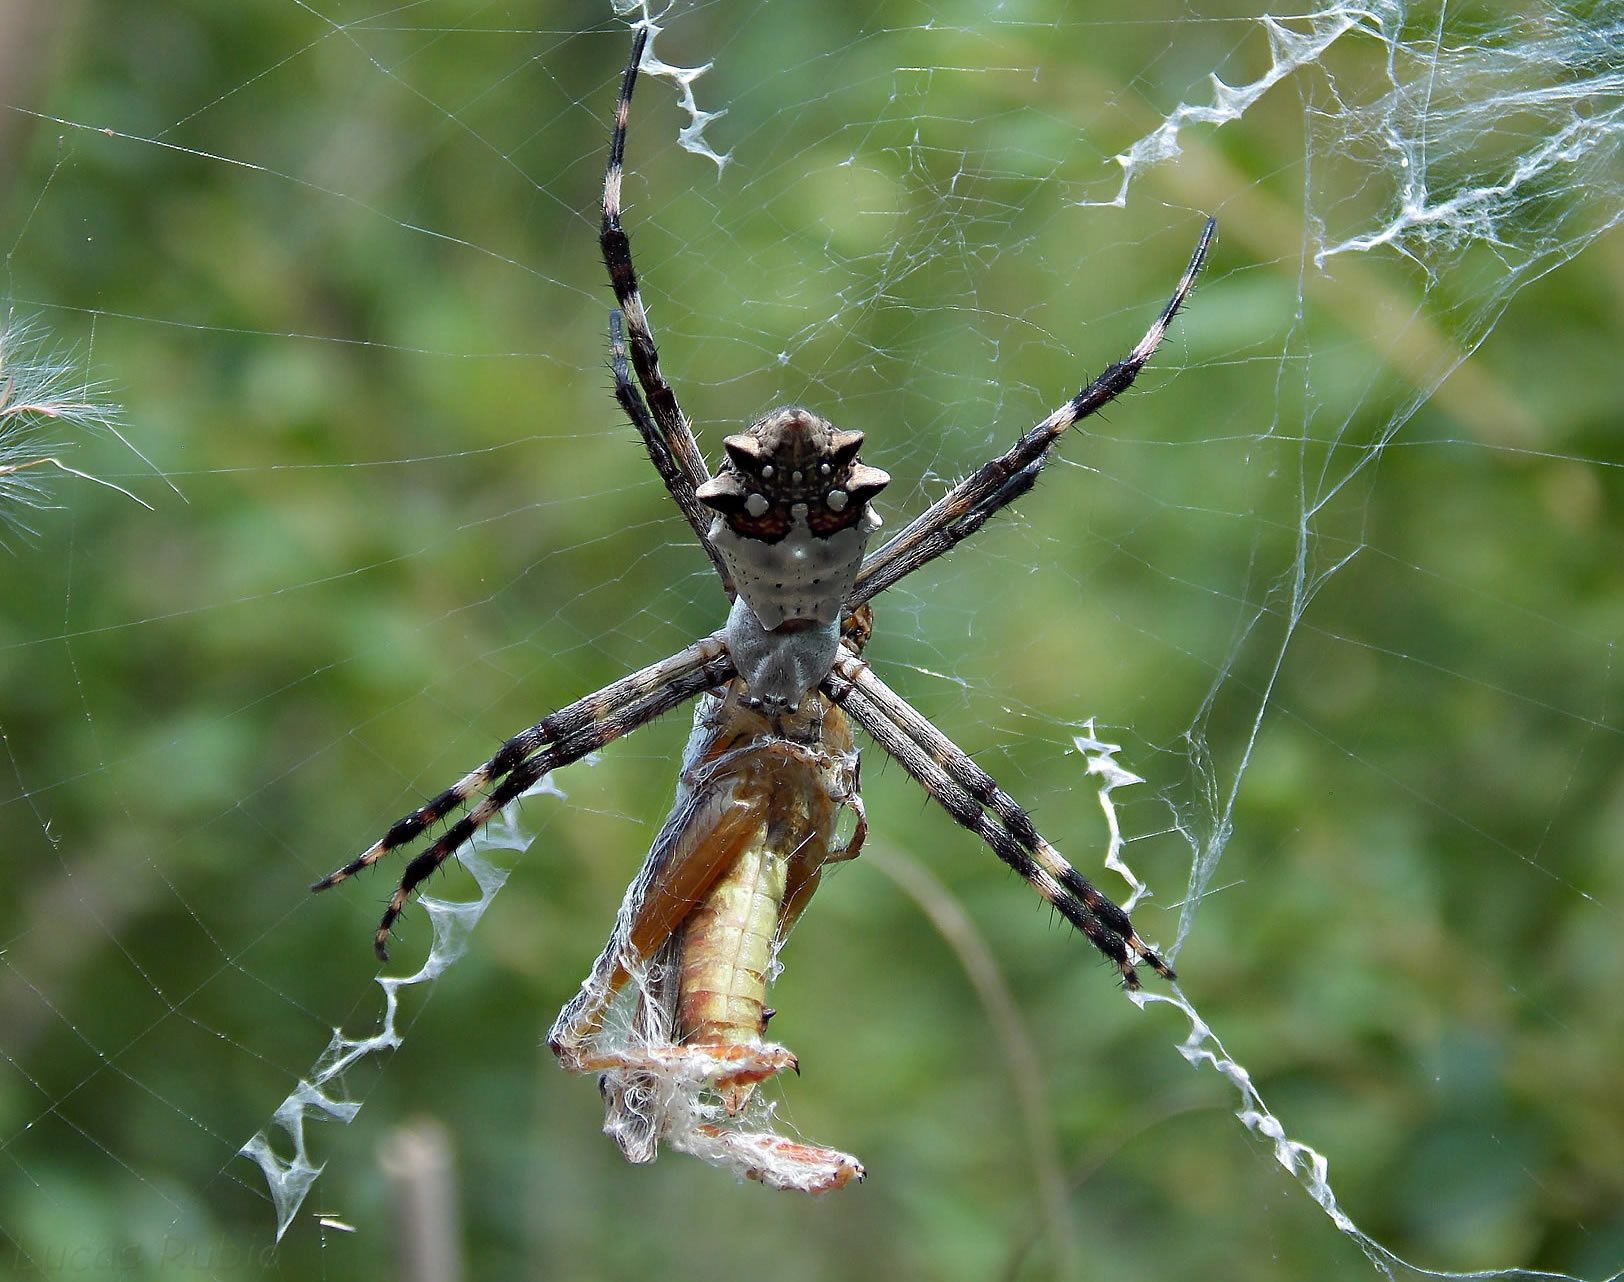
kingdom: Animalia
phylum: Arthropoda
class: Arachnida
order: Araneae
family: Araneidae
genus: Argiope
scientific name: Argiope argentata
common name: Orb weavers
